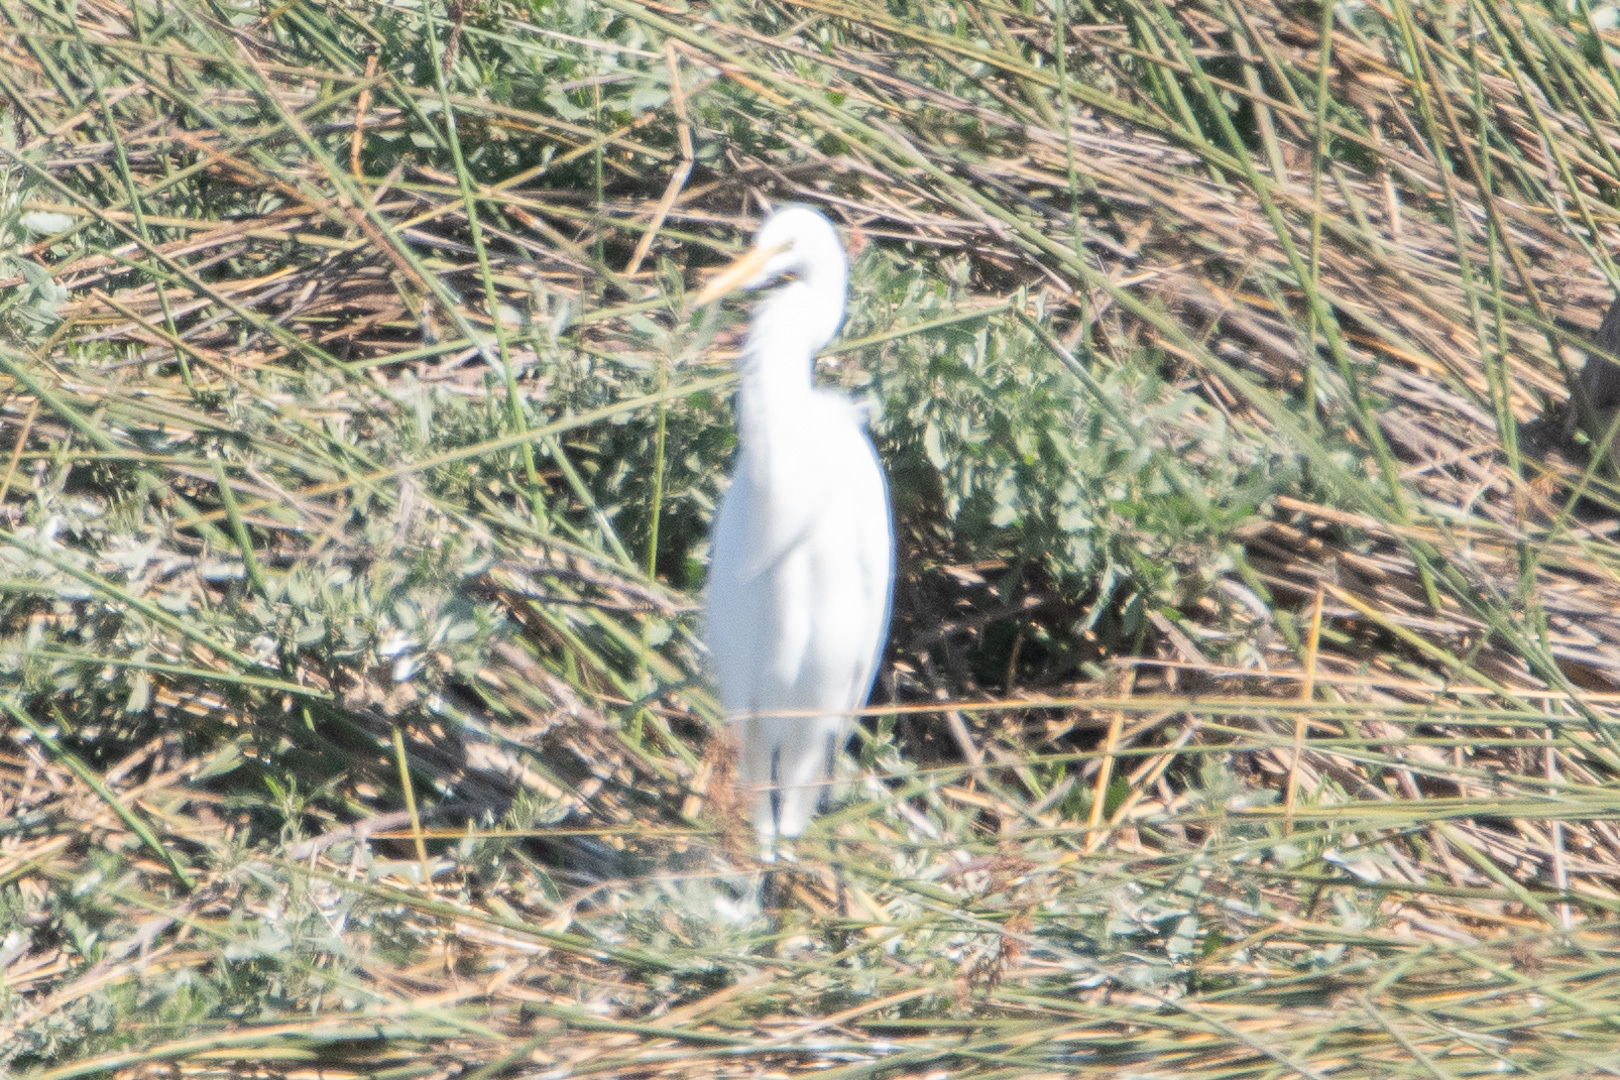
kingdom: Animalia
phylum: Chordata
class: Aves
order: Pelecaniformes
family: Ardeidae
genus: Ardea
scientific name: Ardea alba
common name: Great egret
